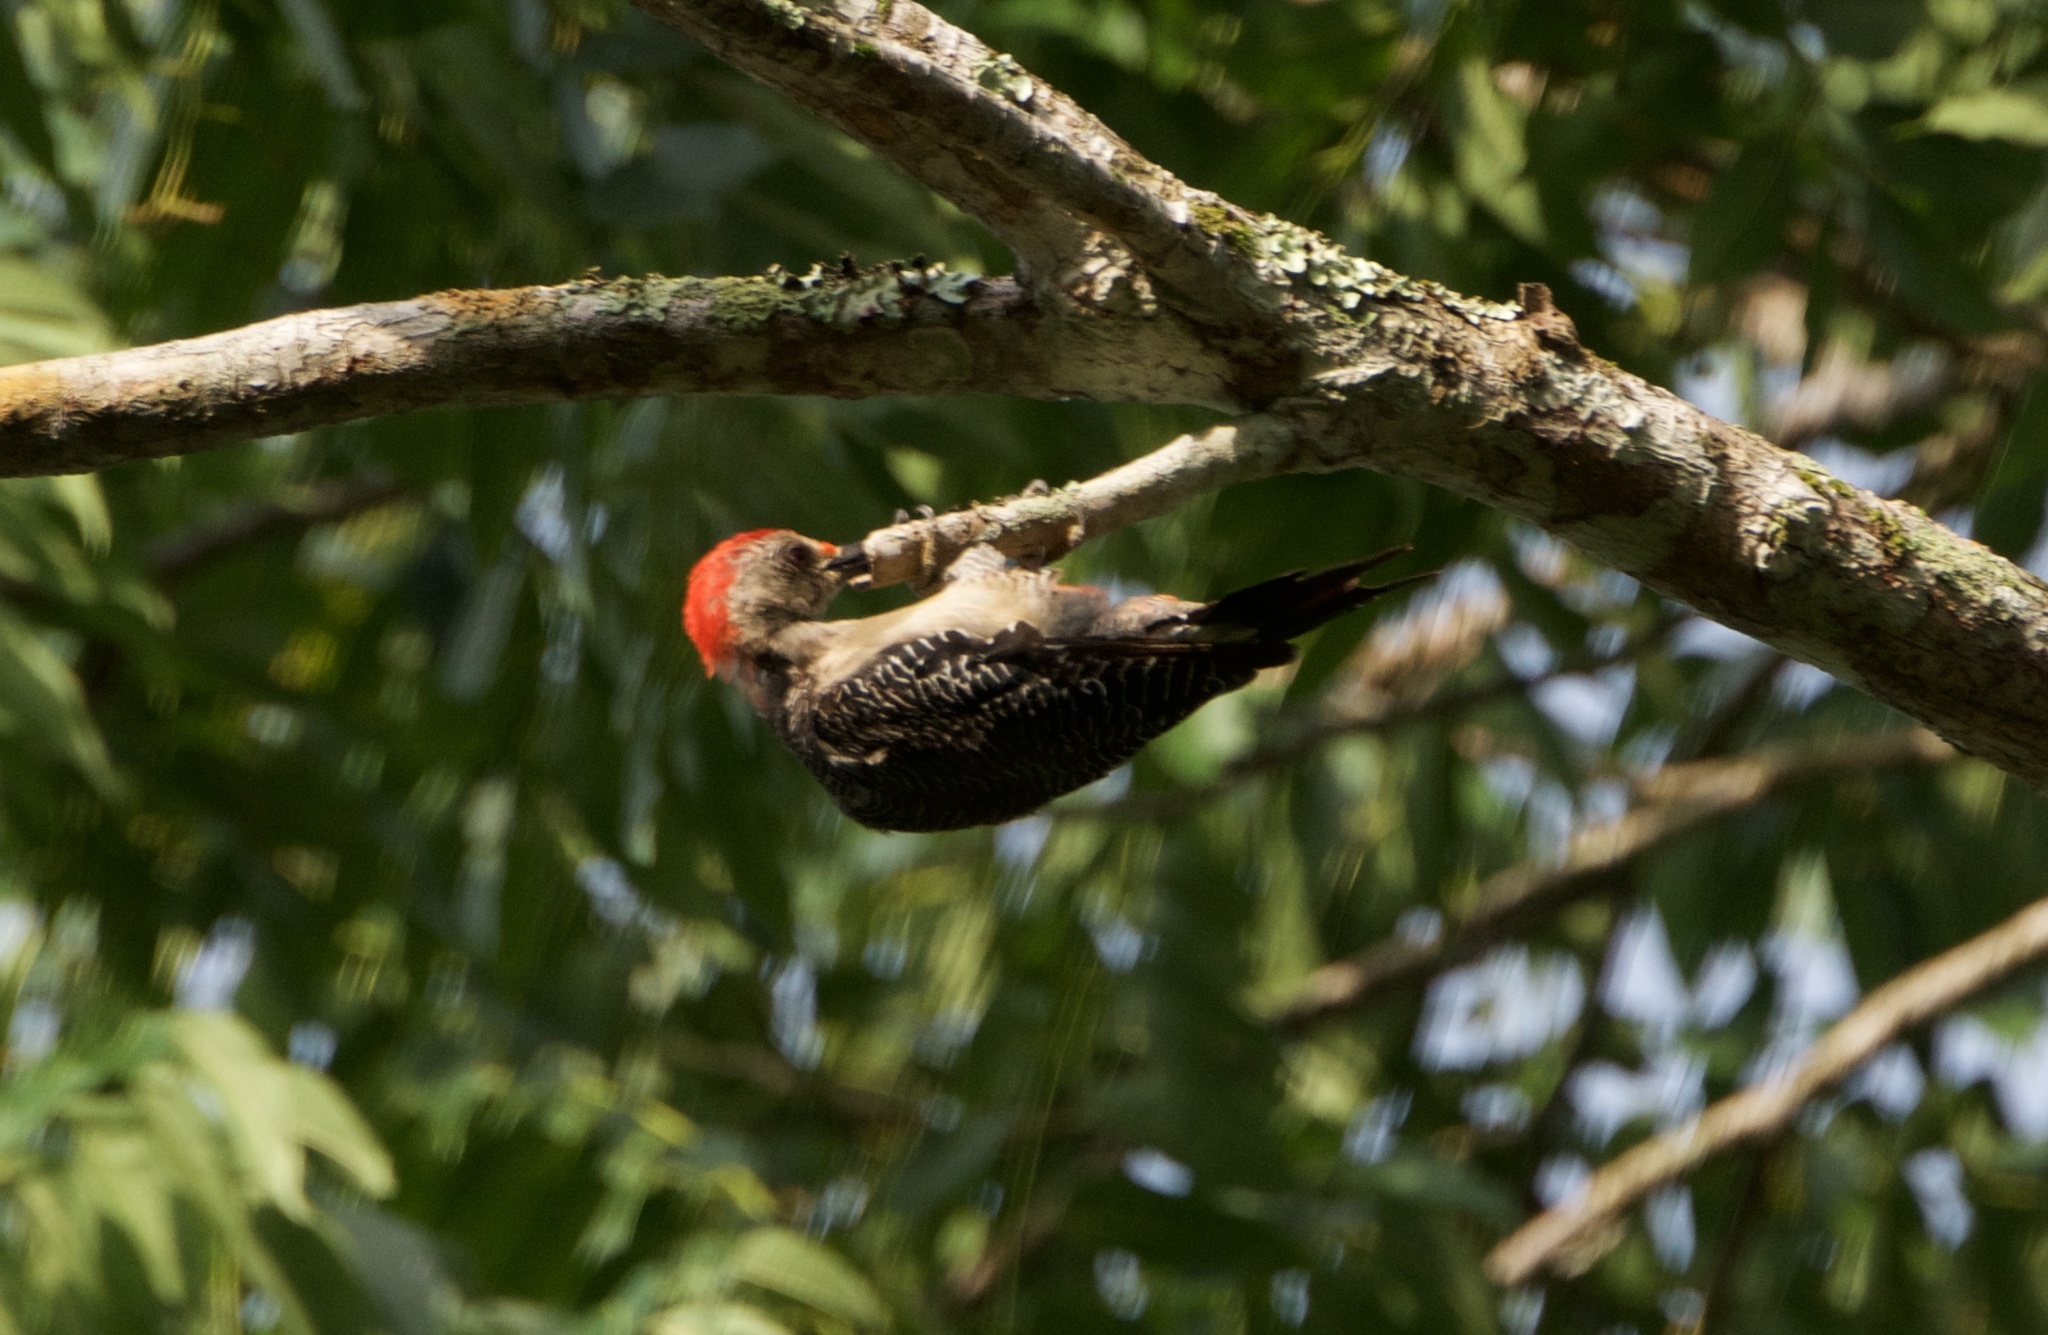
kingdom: Animalia
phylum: Chordata
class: Aves
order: Piciformes
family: Picidae
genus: Melanerpes
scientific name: Melanerpes aurifrons
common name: Golden-fronted woodpecker
